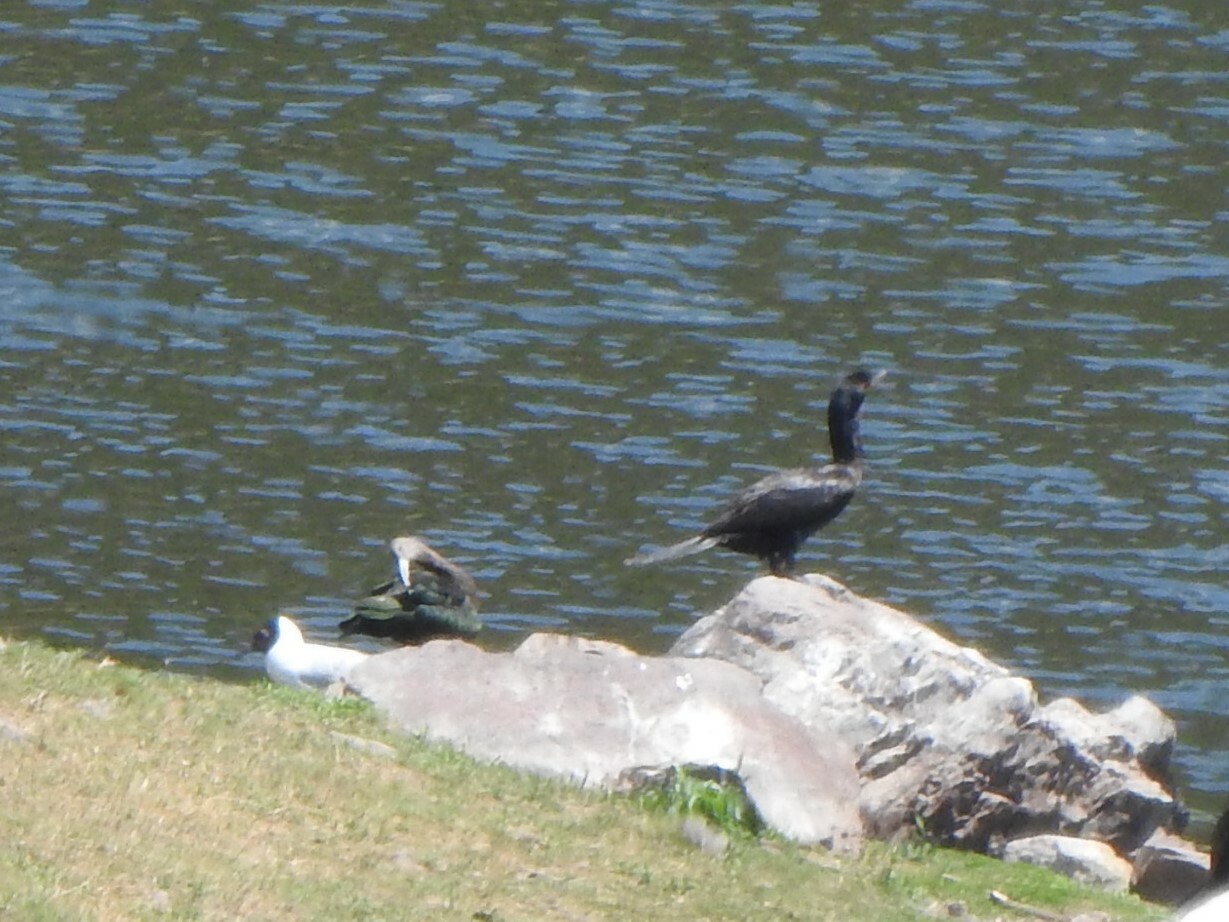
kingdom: Animalia
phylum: Chordata
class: Aves
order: Charadriiformes
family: Laridae
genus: Chroicocephalus
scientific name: Chroicocephalus serranus
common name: Andean gull
